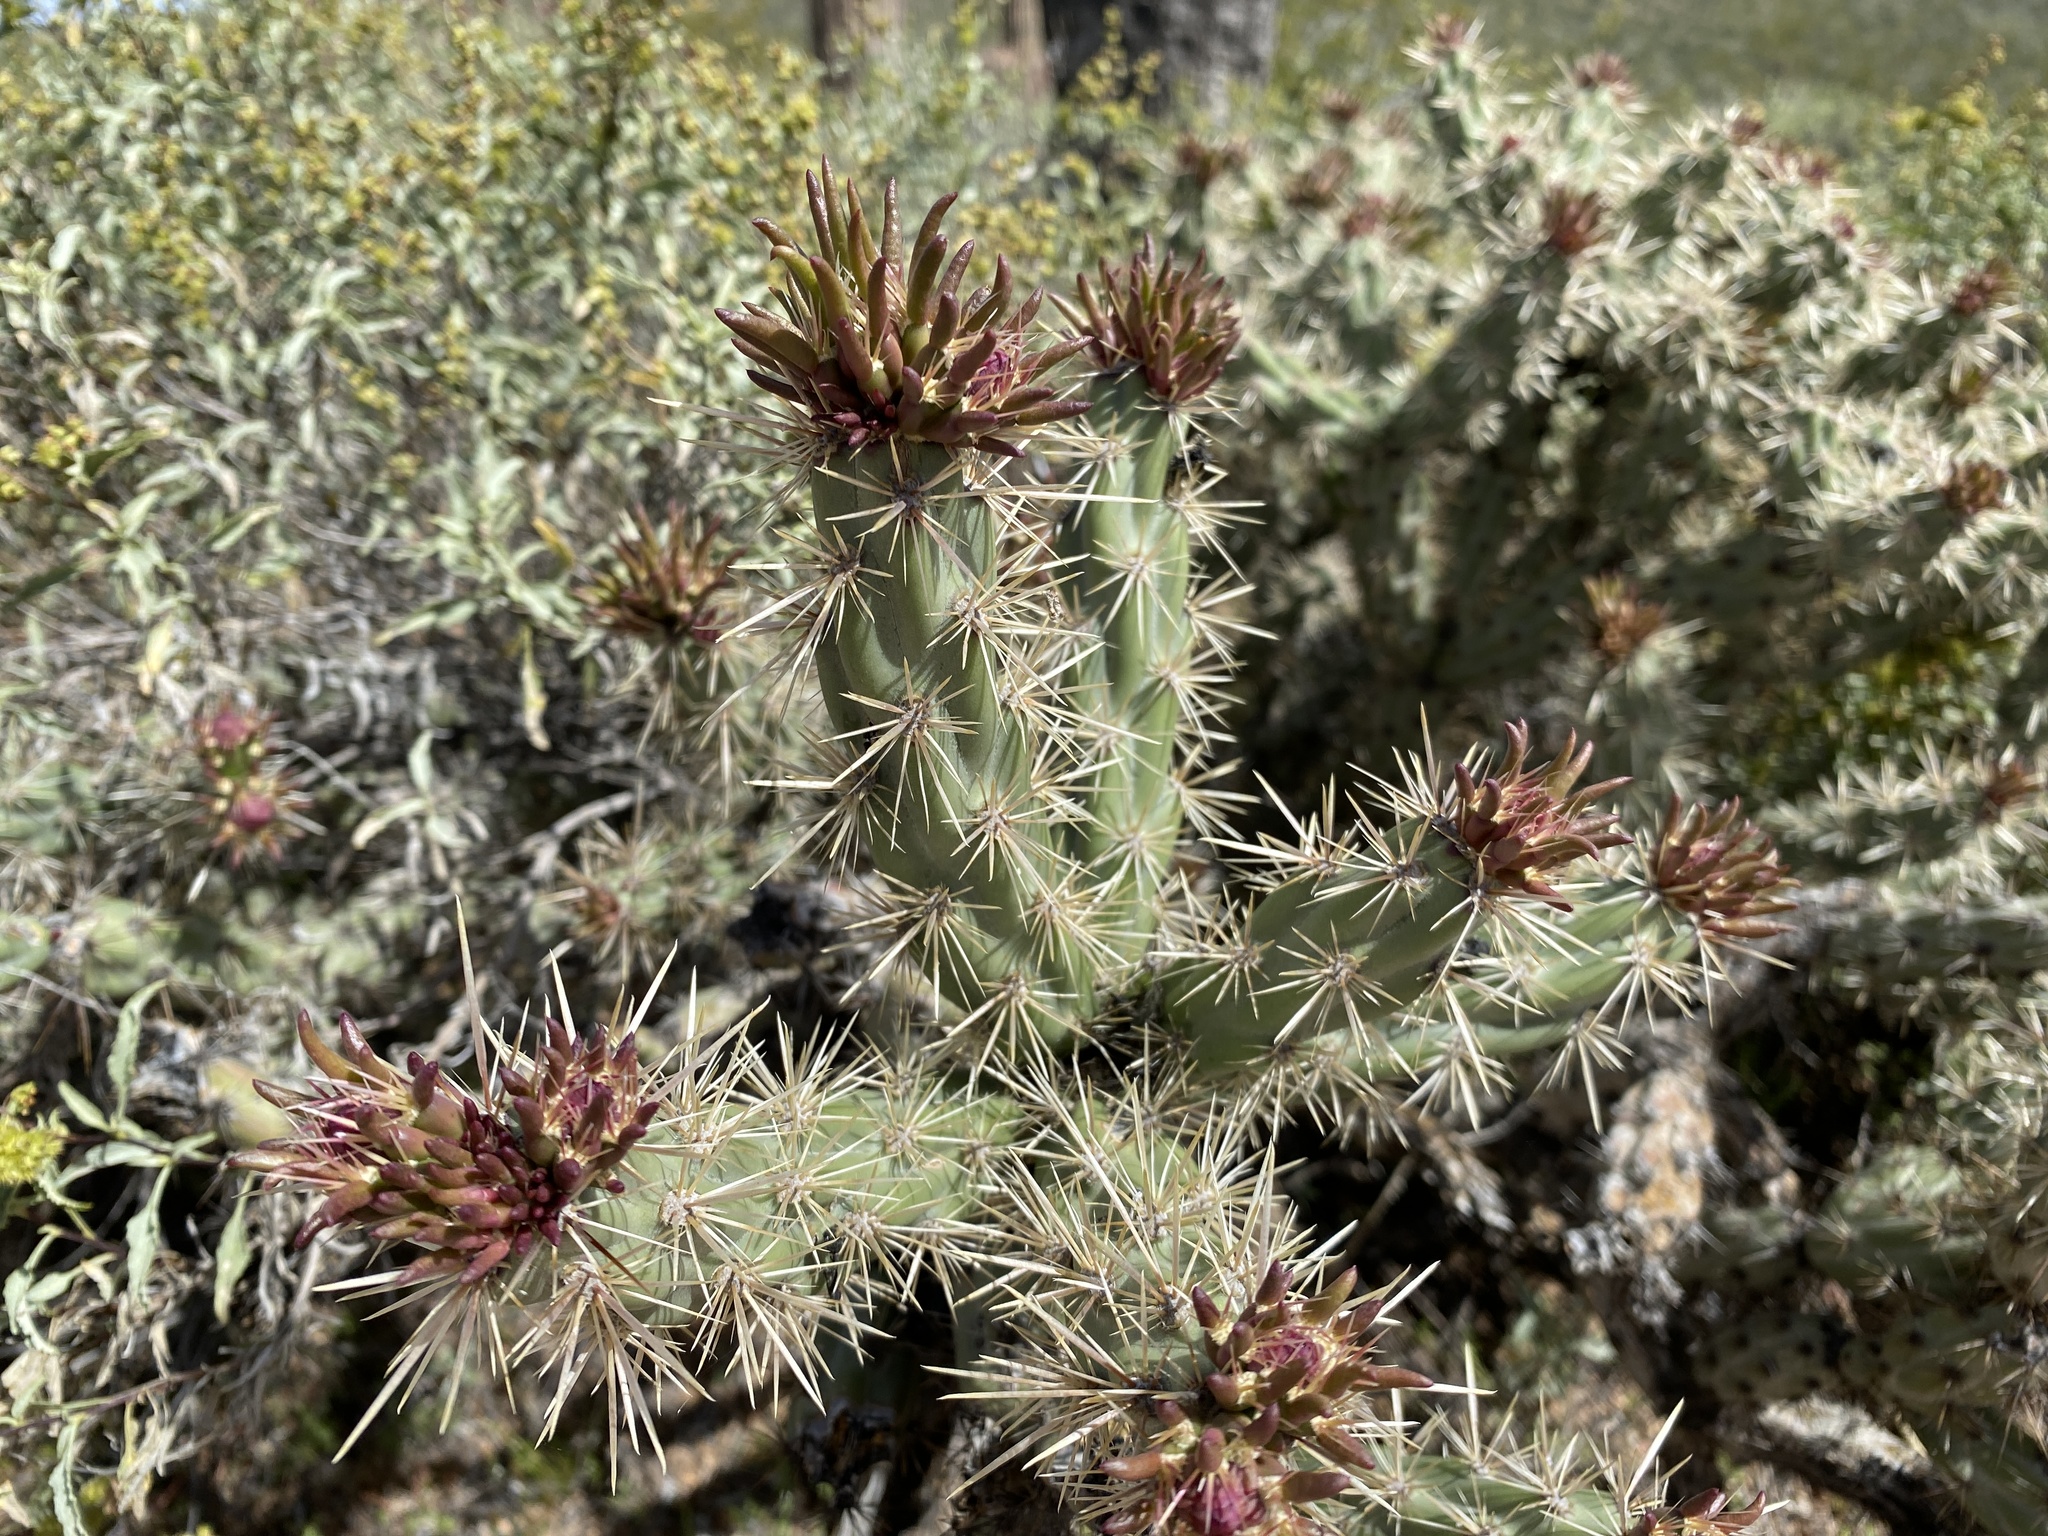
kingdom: Plantae
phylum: Tracheophyta
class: Magnoliopsida
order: Caryophyllales
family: Cactaceae
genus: Cylindropuntia
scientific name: Cylindropuntia acanthocarpa
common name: Buckhorn cholla
